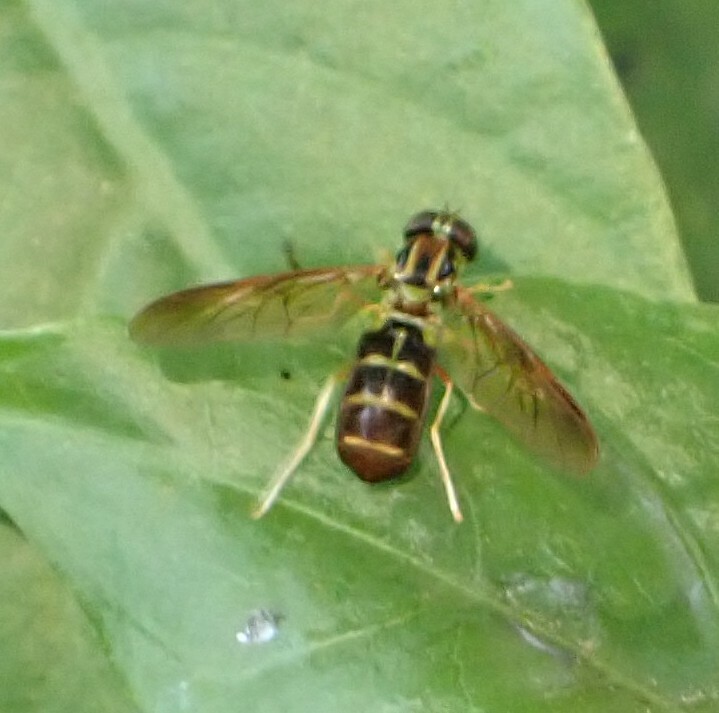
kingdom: Animalia
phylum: Arthropoda
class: Insecta
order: Diptera
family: Stratiomyidae
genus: Chrysochlorina
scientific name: Chrysochlorina pluricolor
